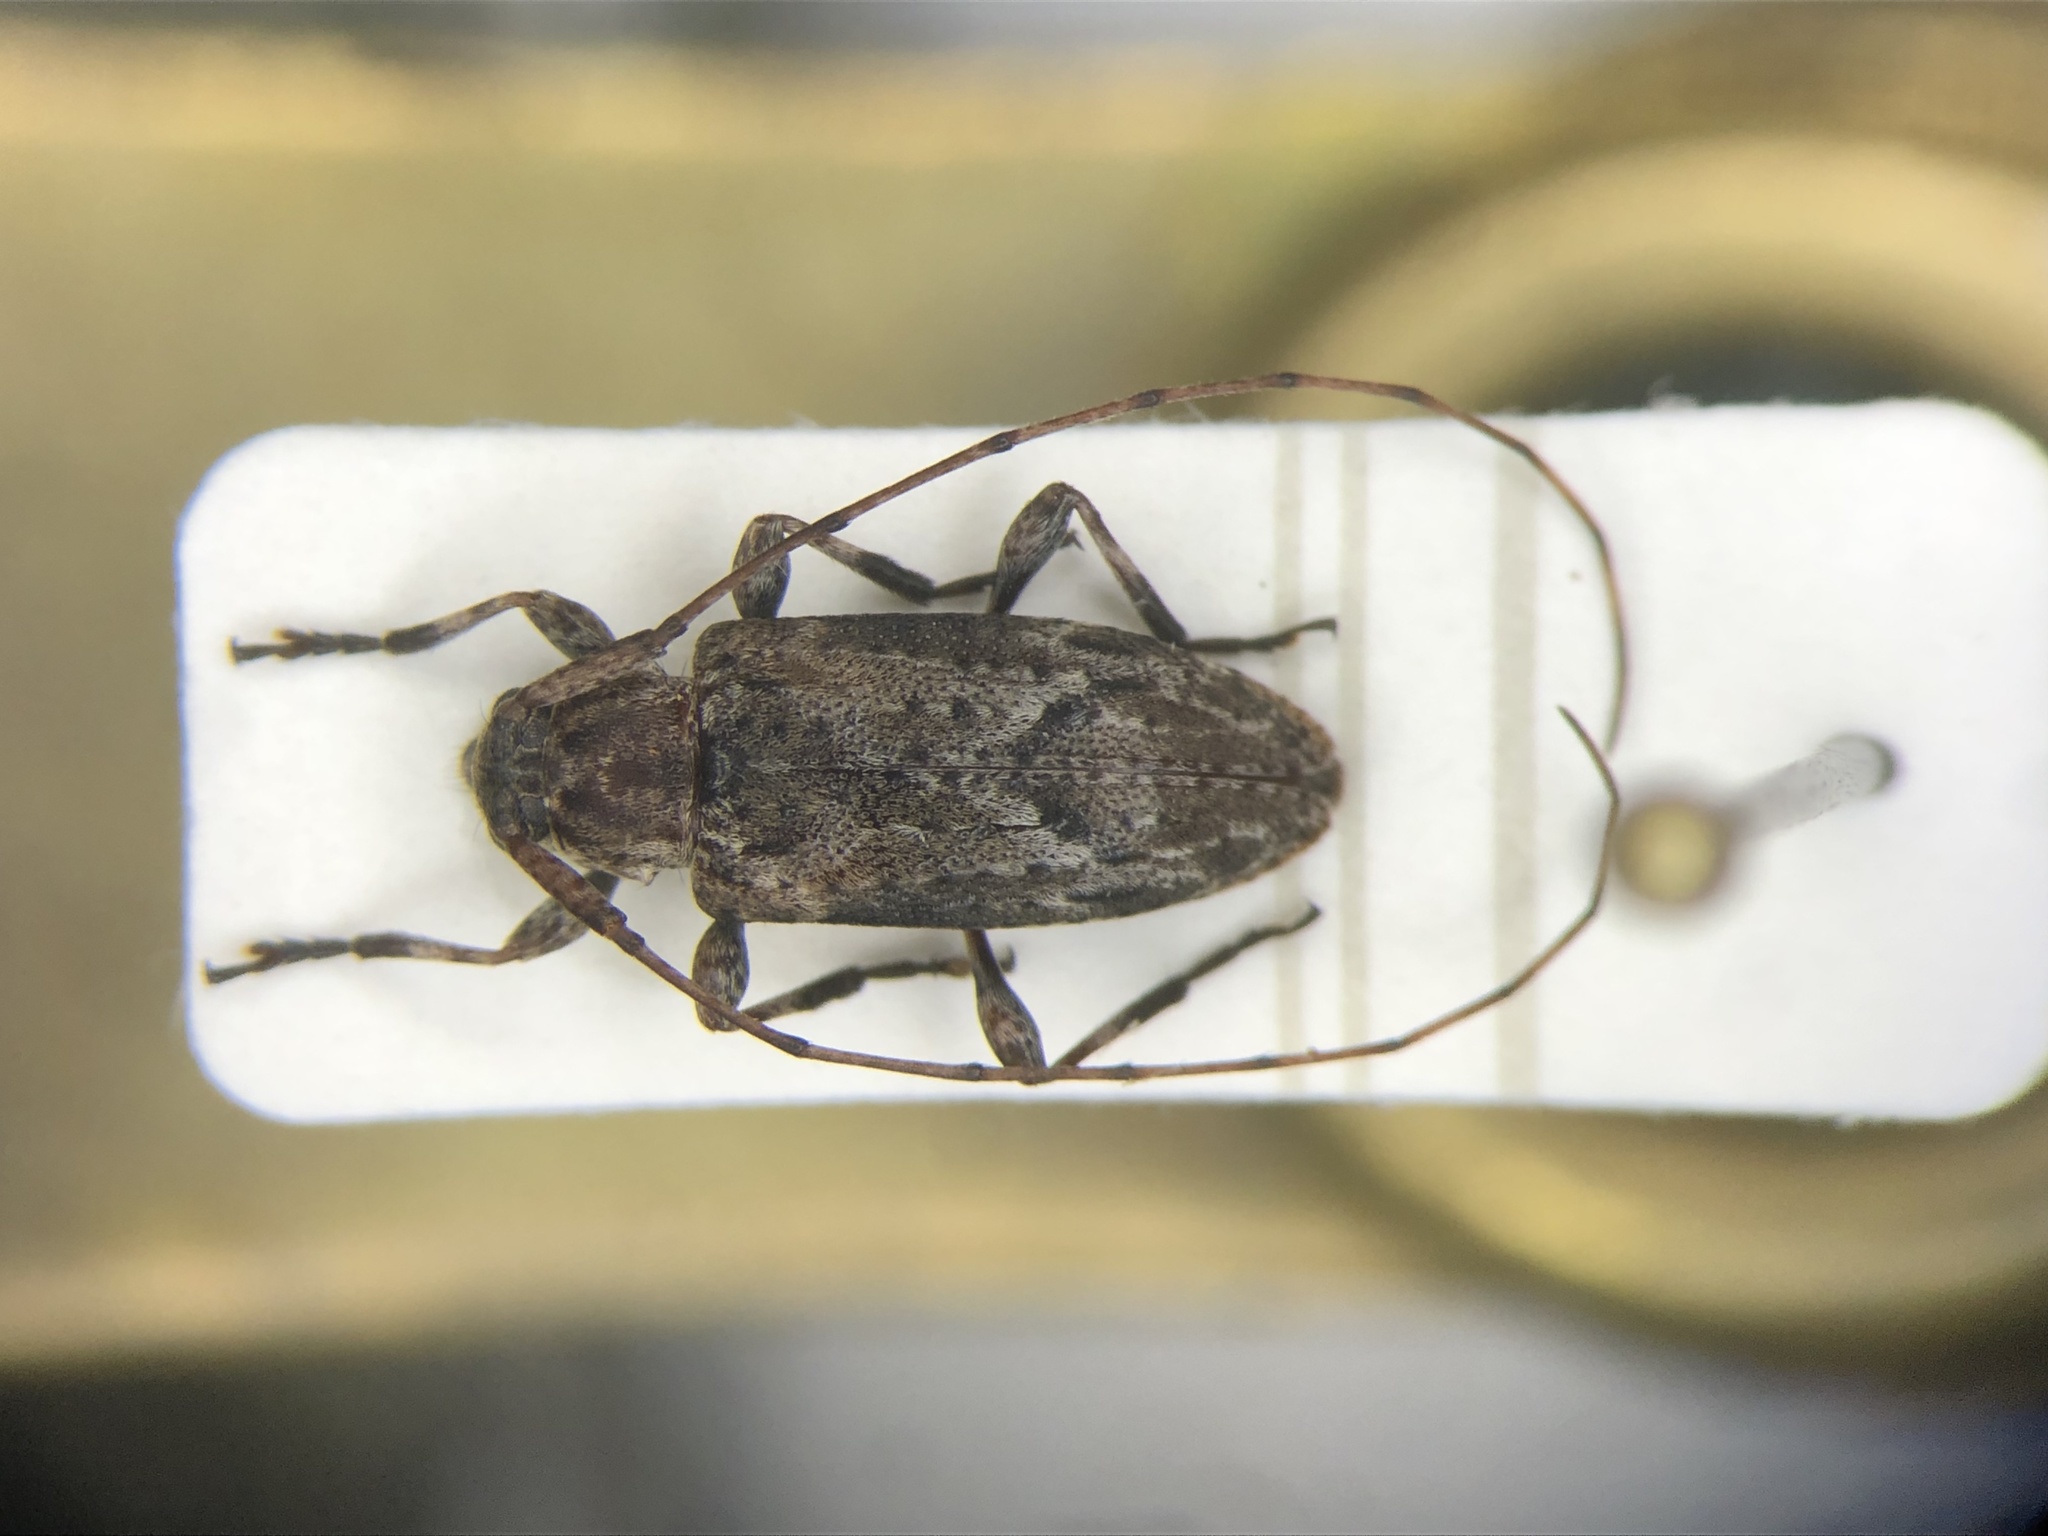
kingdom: Animalia
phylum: Arthropoda
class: Insecta
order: Coleoptera
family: Cerambycidae
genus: Sternidius
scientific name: Sternidius alpha
